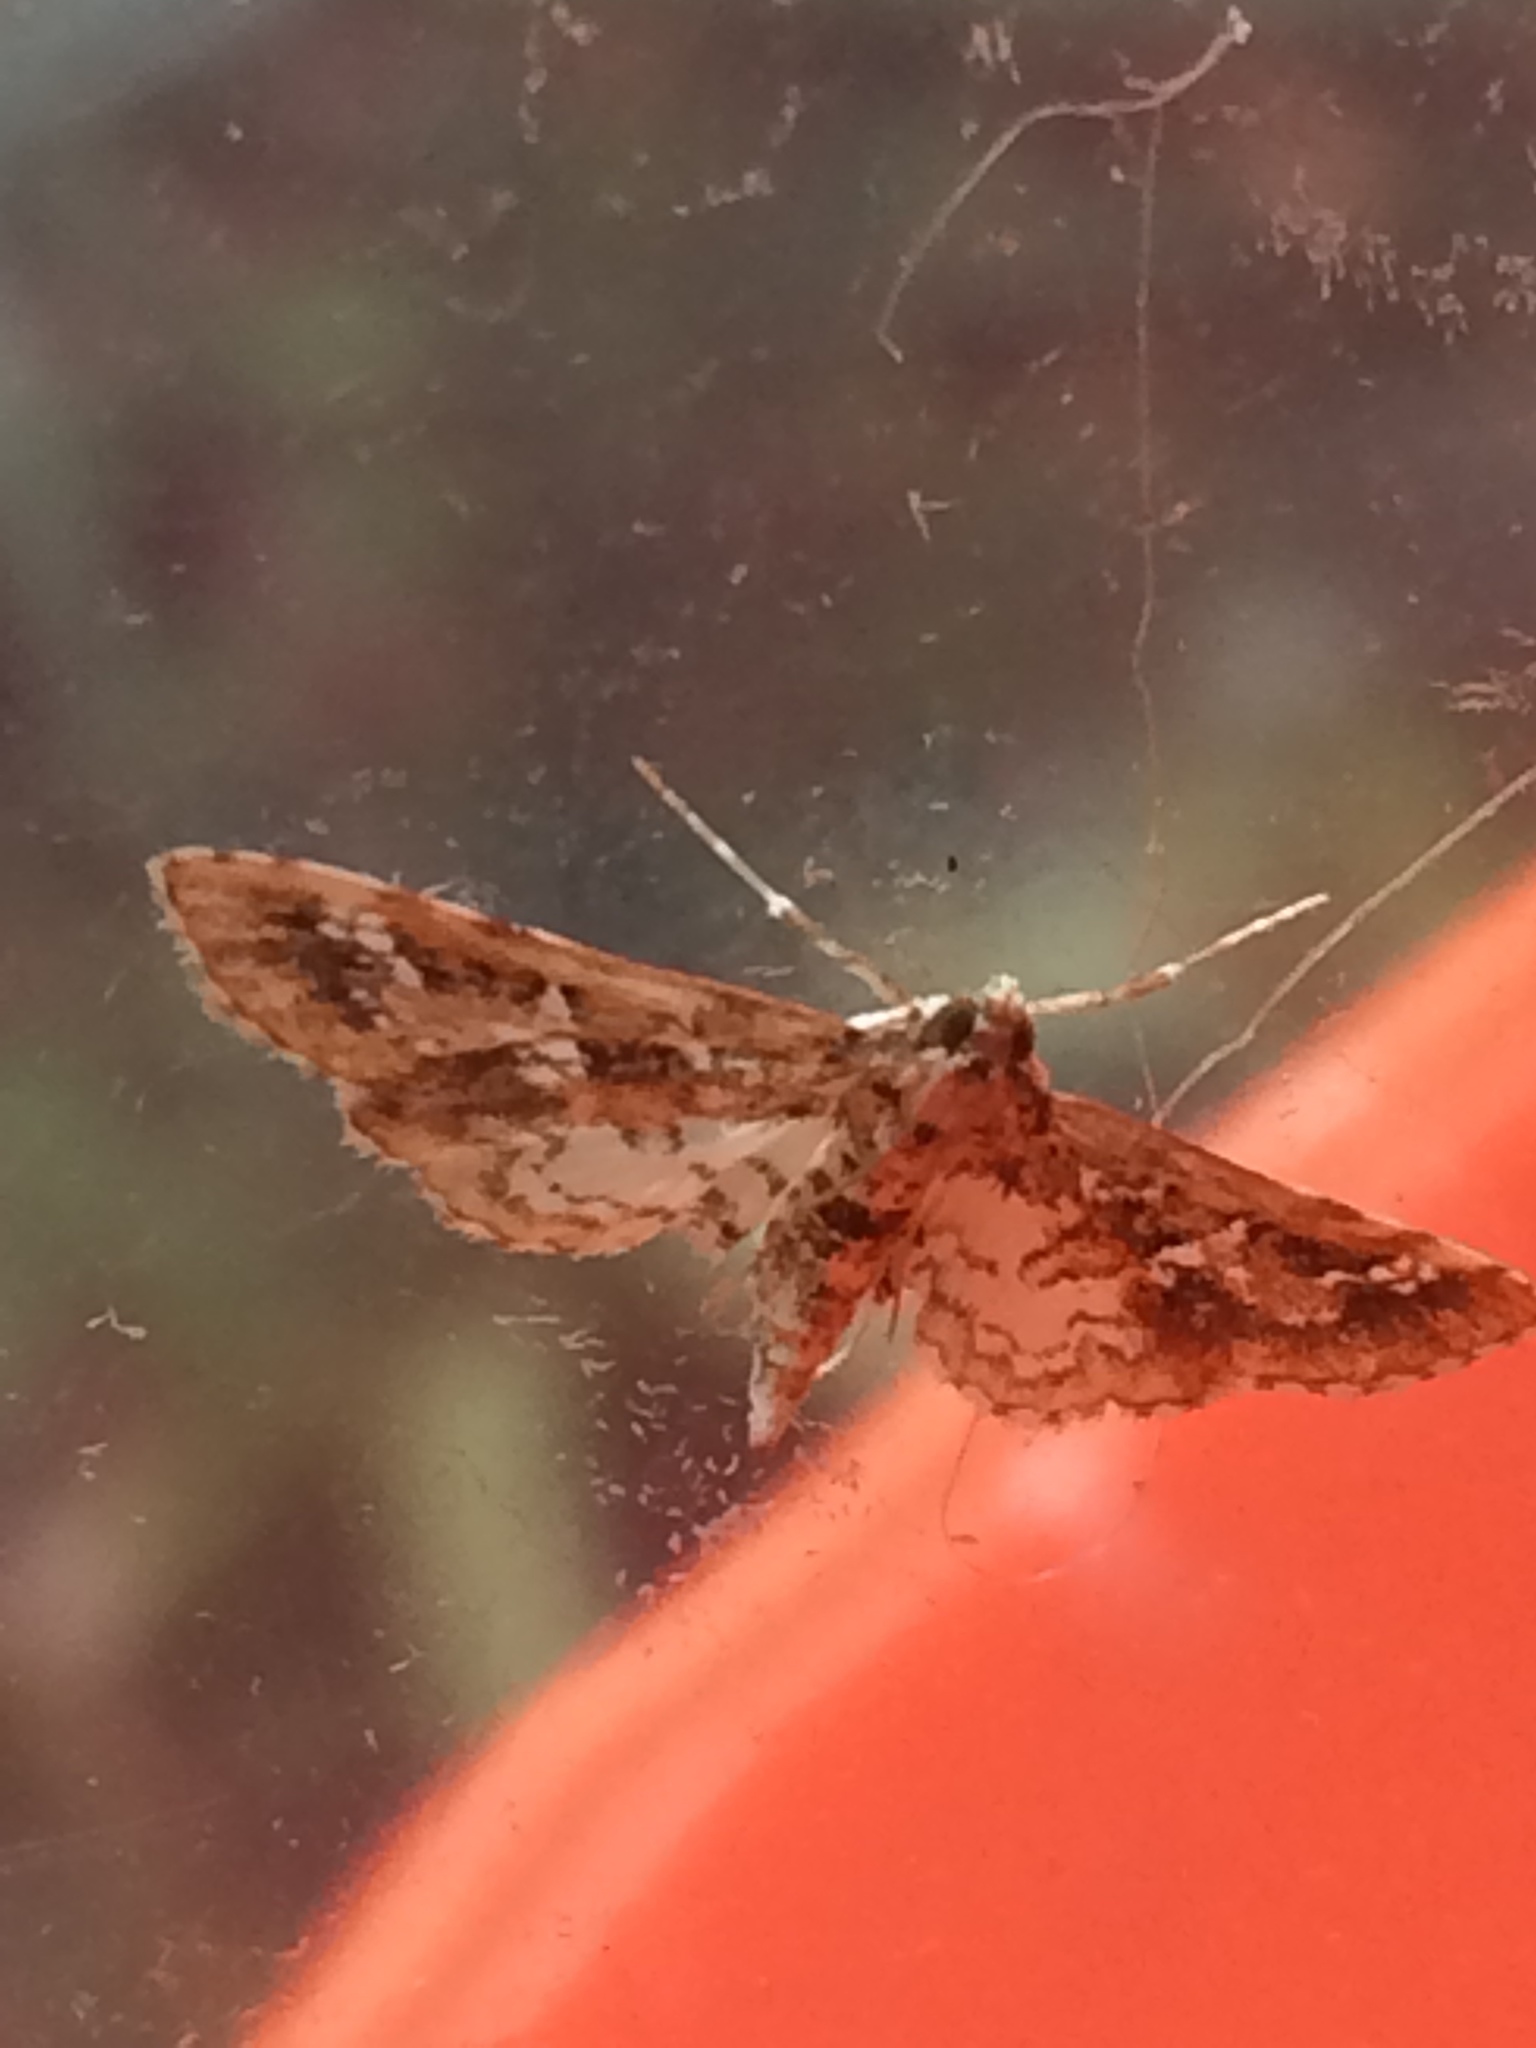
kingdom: Animalia
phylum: Arthropoda
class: Insecta
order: Lepidoptera
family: Crambidae
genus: Samea
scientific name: Samea multiplicalis
